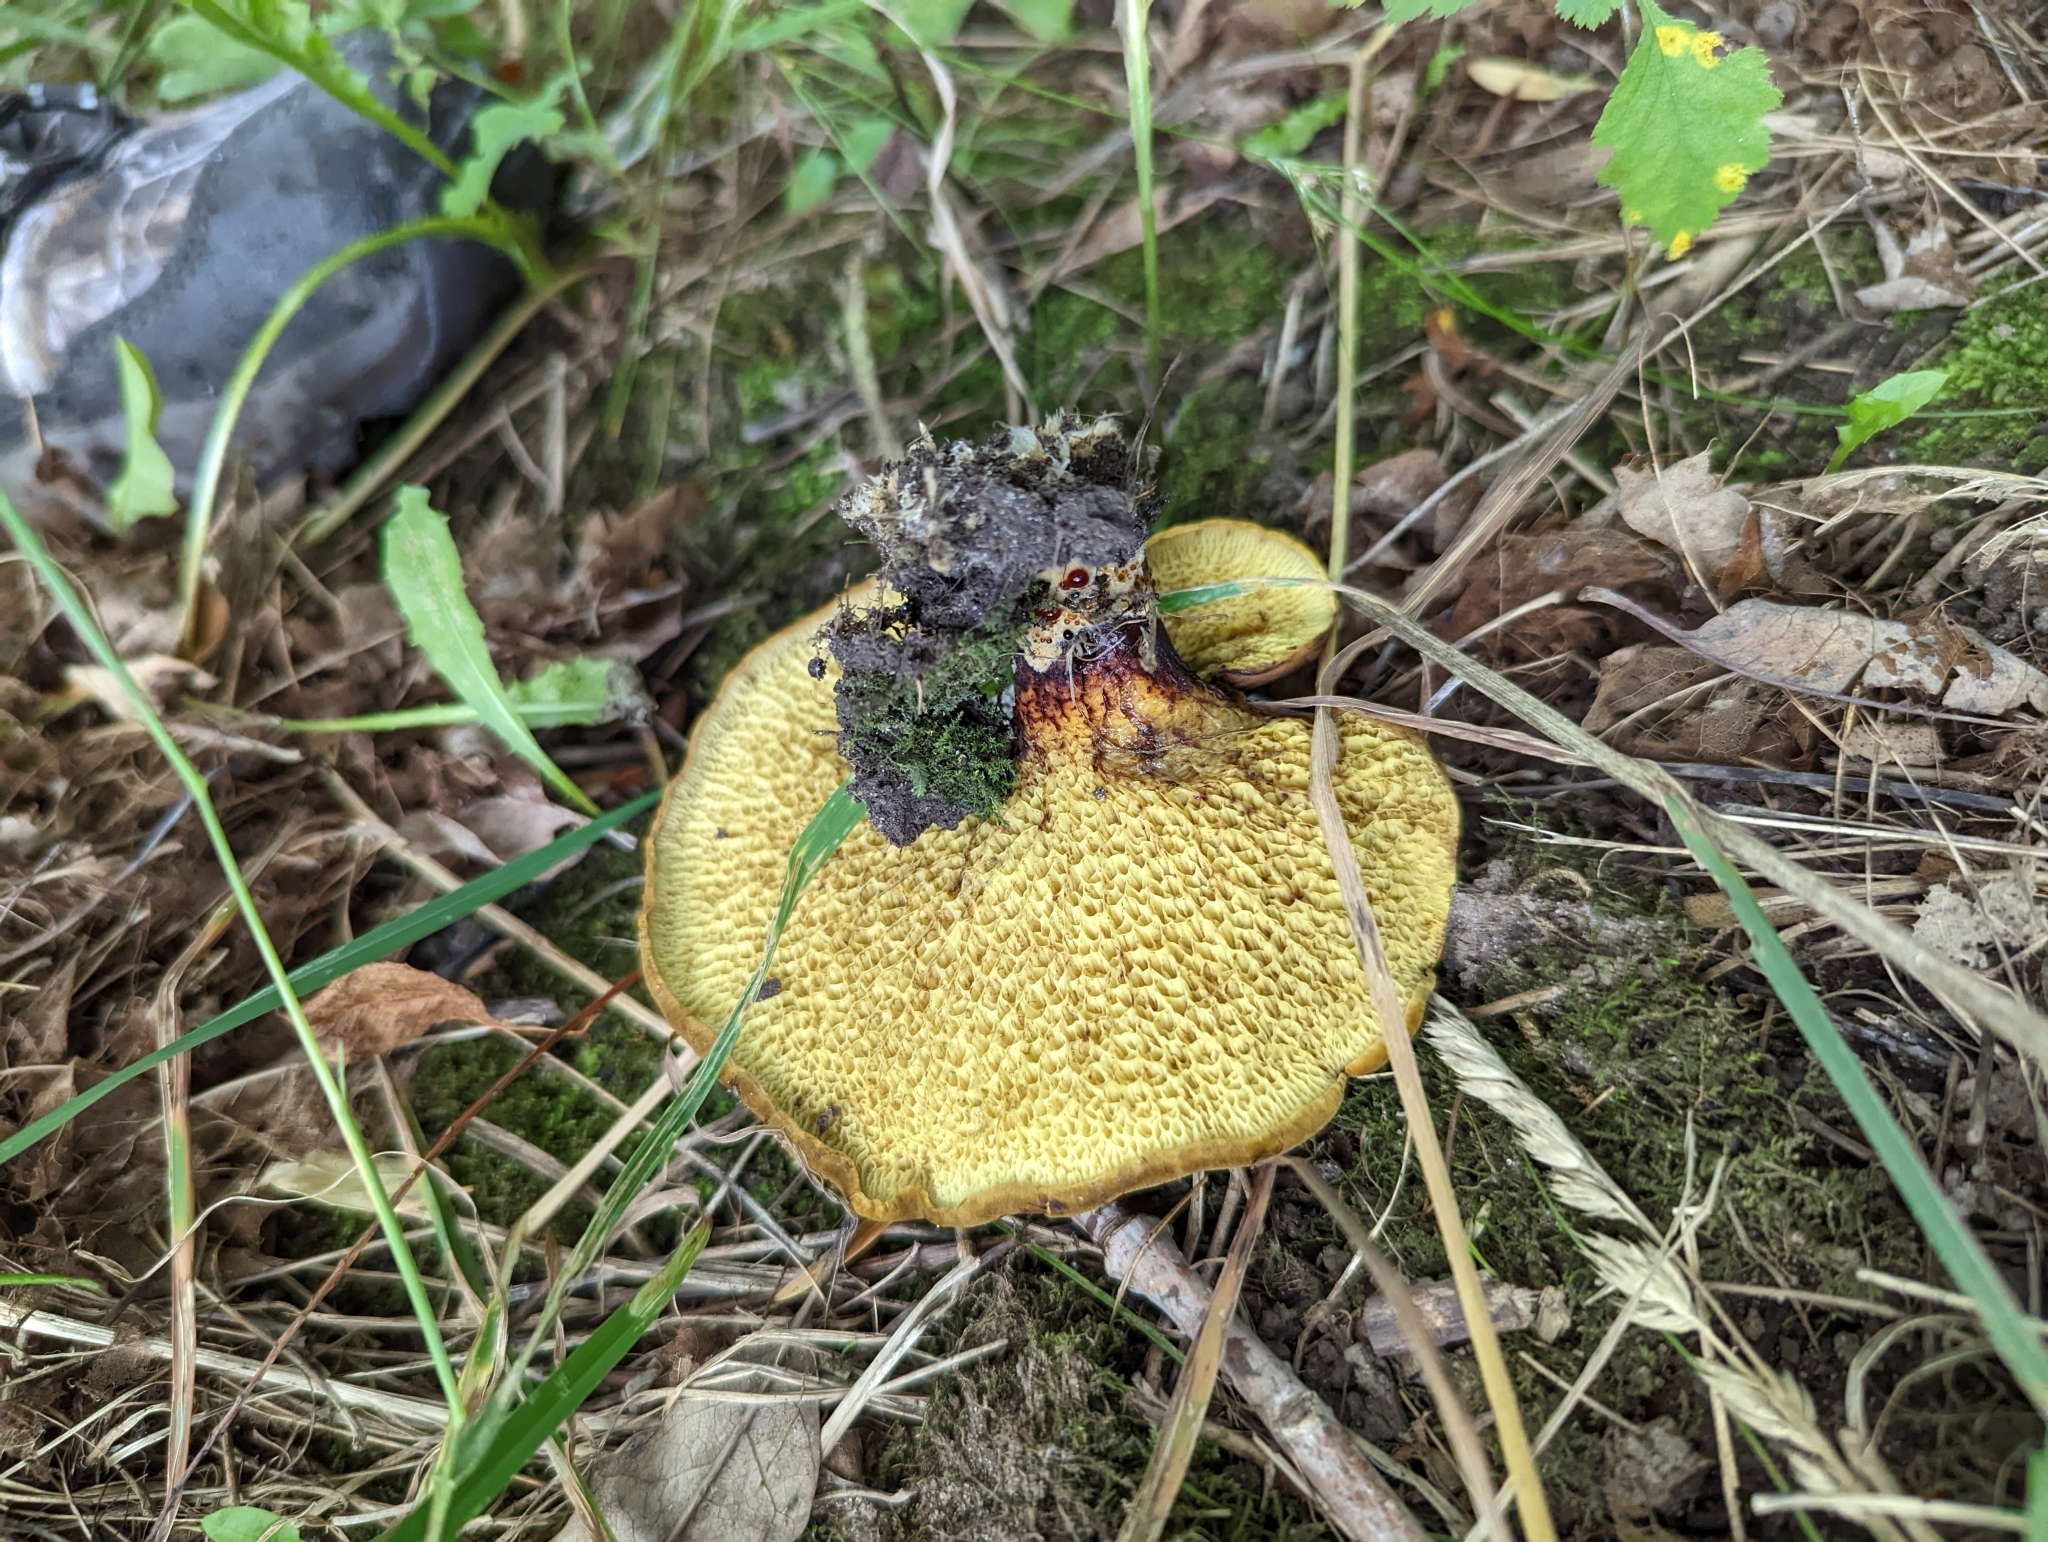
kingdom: Fungi
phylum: Ascomycota
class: Sordariomycetes
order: Hypocreales
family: Hypocreaceae
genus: Hypomyces
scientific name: Hypomyces chrysospermus
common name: Bolete mould
